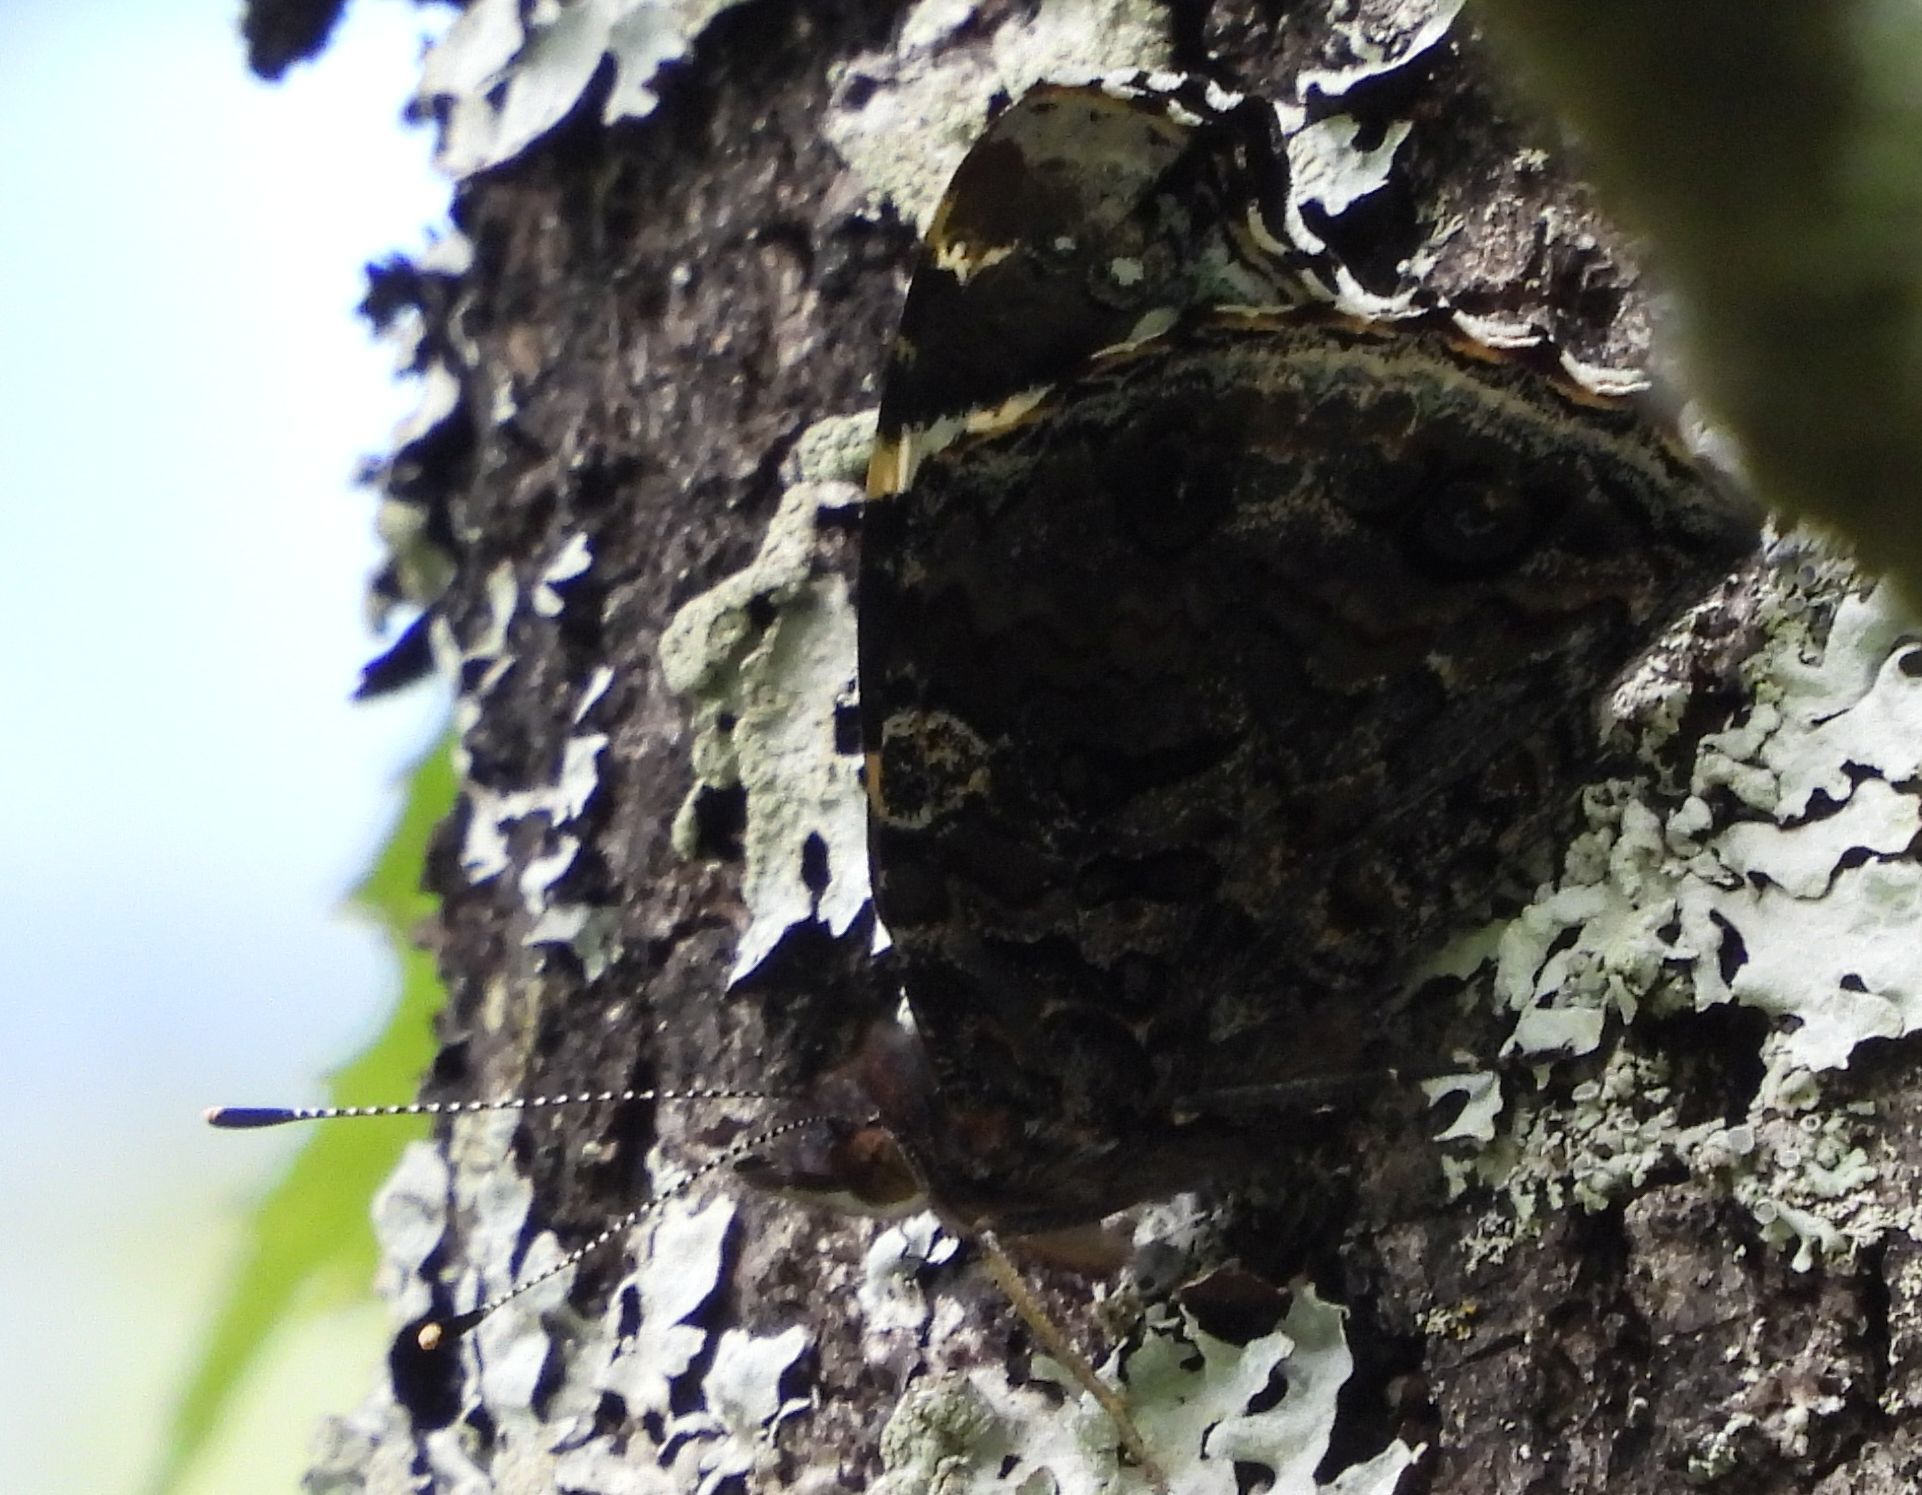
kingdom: Animalia
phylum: Arthropoda
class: Insecta
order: Lepidoptera
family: Nymphalidae
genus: Vanessa
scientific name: Vanessa atalanta
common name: Red admiral
